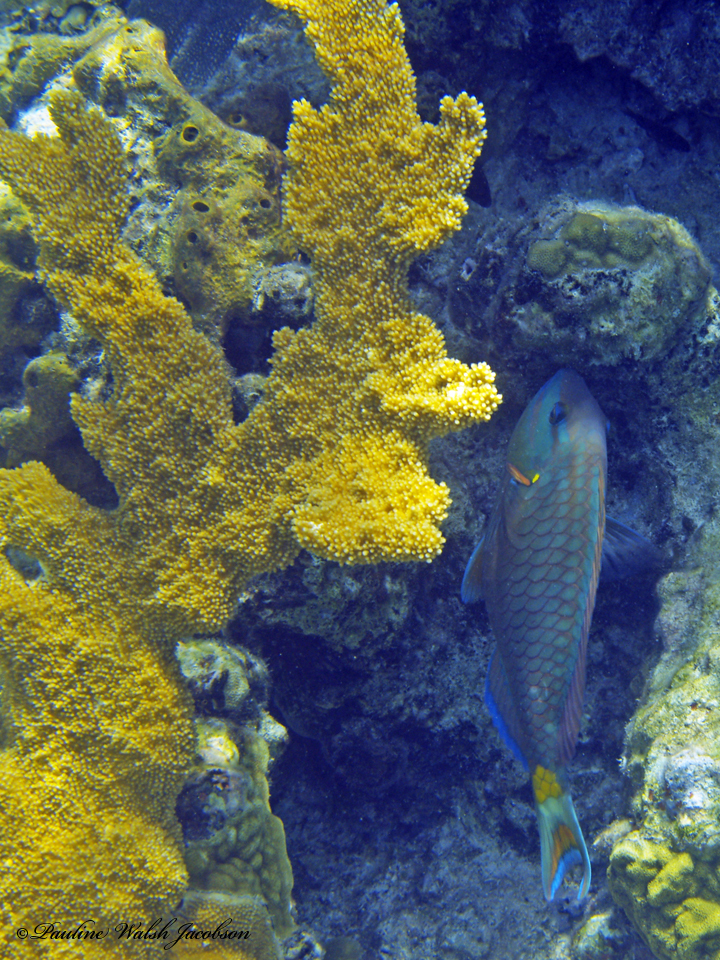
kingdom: Animalia
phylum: Chordata
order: Perciformes
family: Scaridae
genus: Sparisoma
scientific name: Sparisoma viride
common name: Stoplight parrotfish
